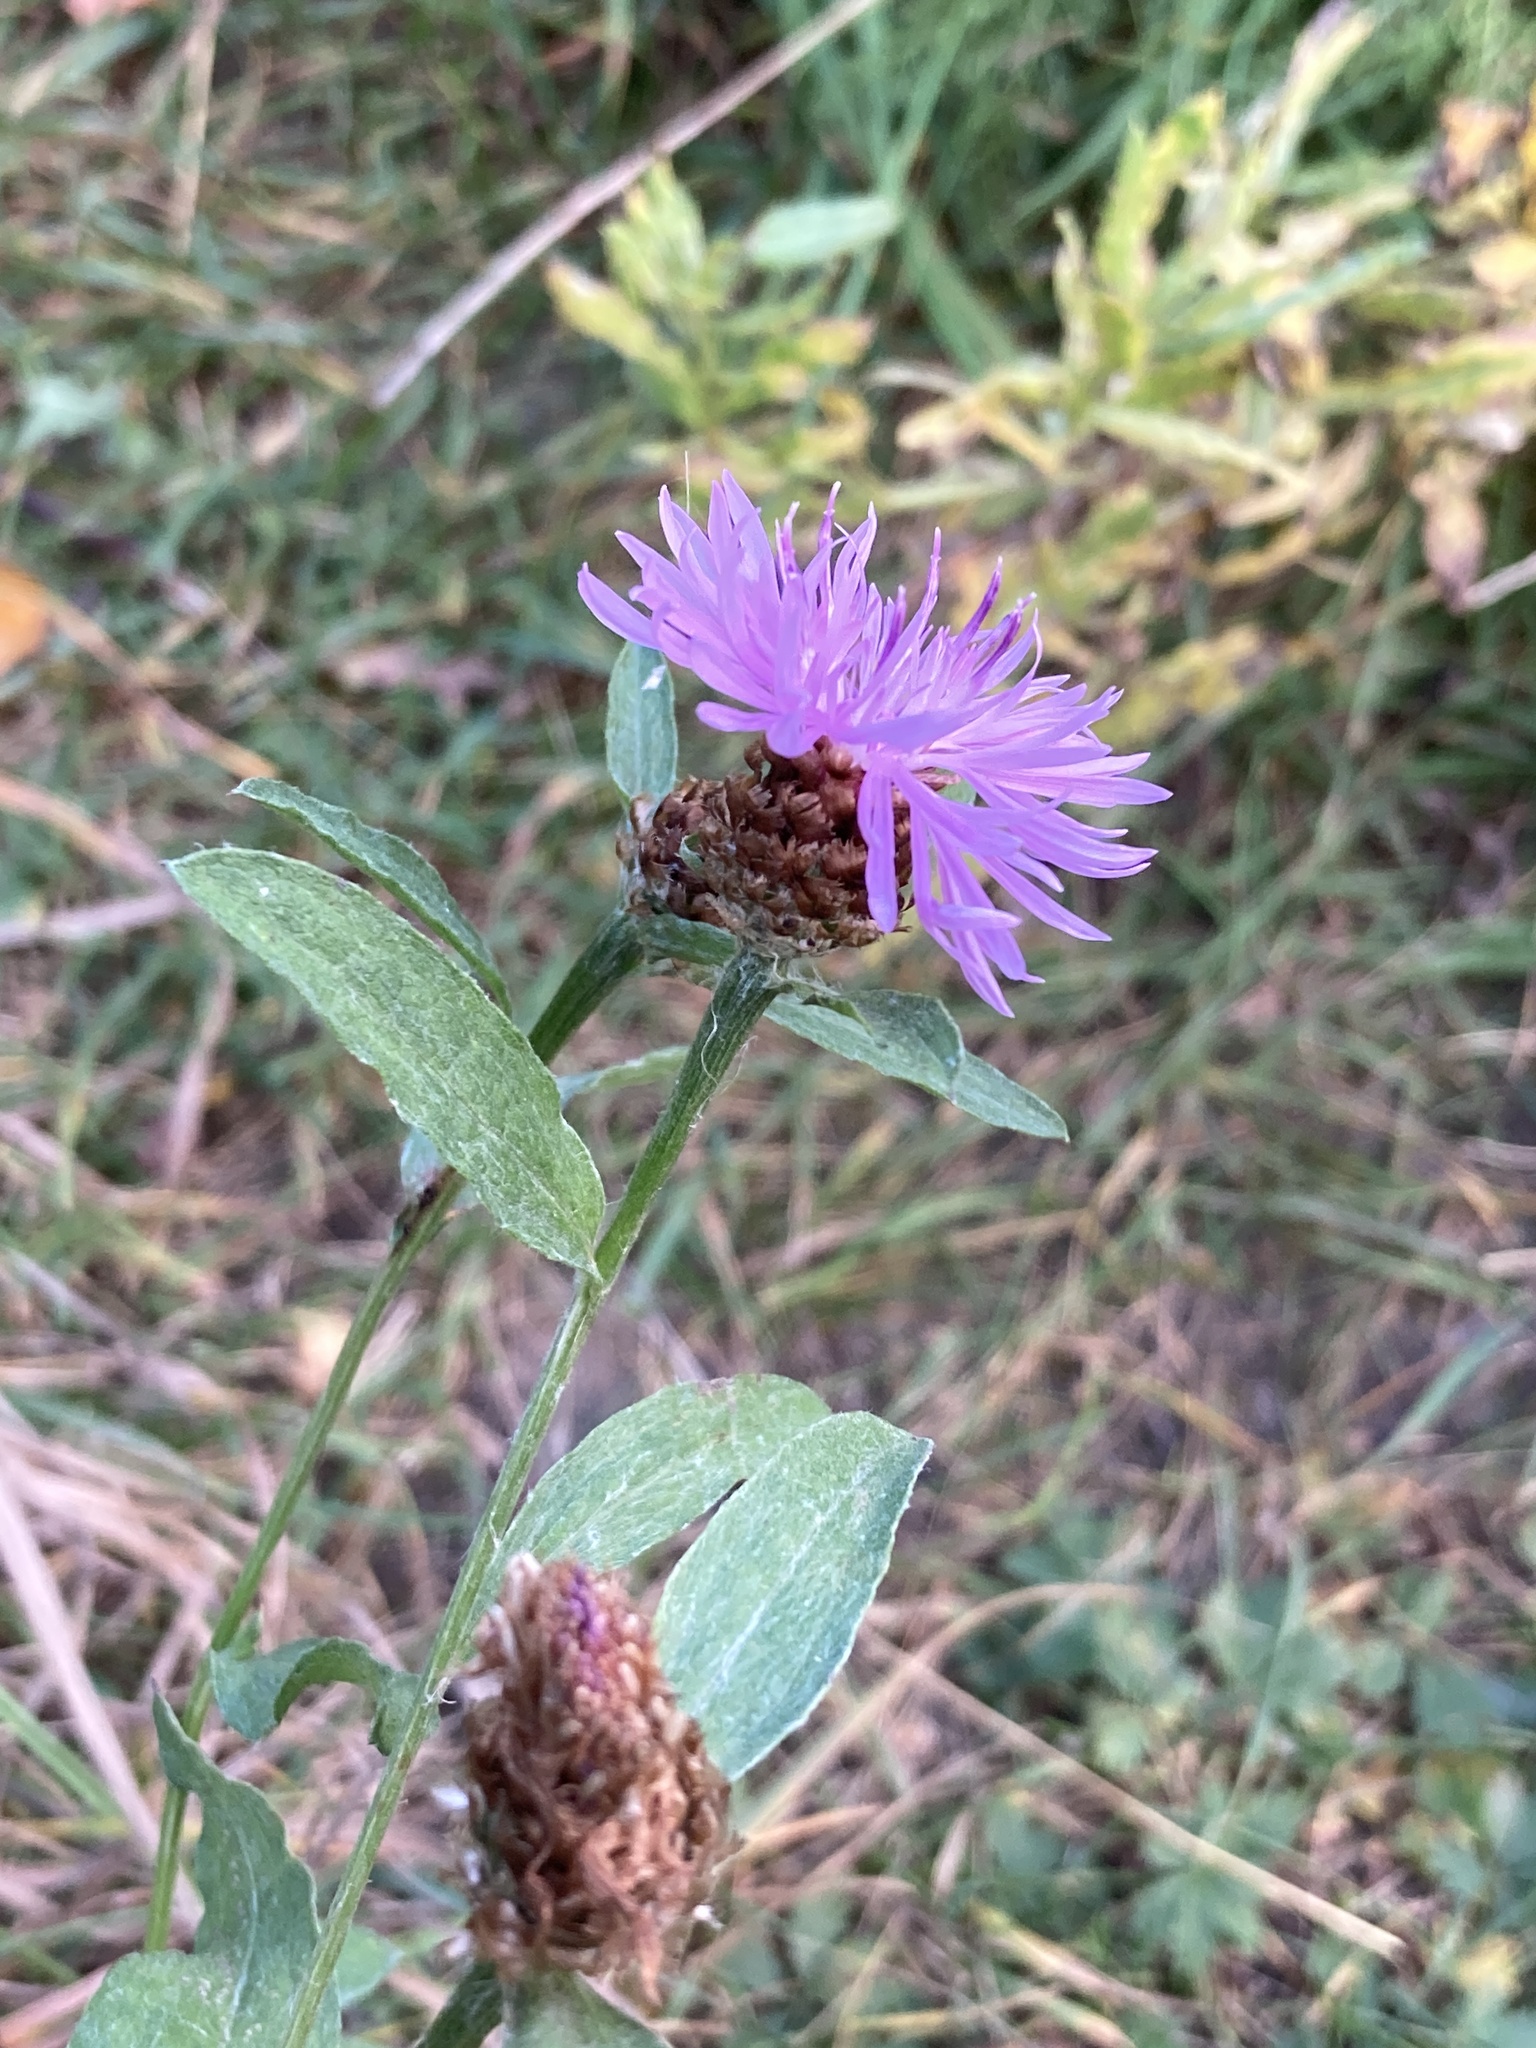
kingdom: Plantae
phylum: Tracheophyta
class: Magnoliopsida
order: Asterales
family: Asteraceae
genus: Centaurea
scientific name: Centaurea jacea
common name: Brown knapweed
